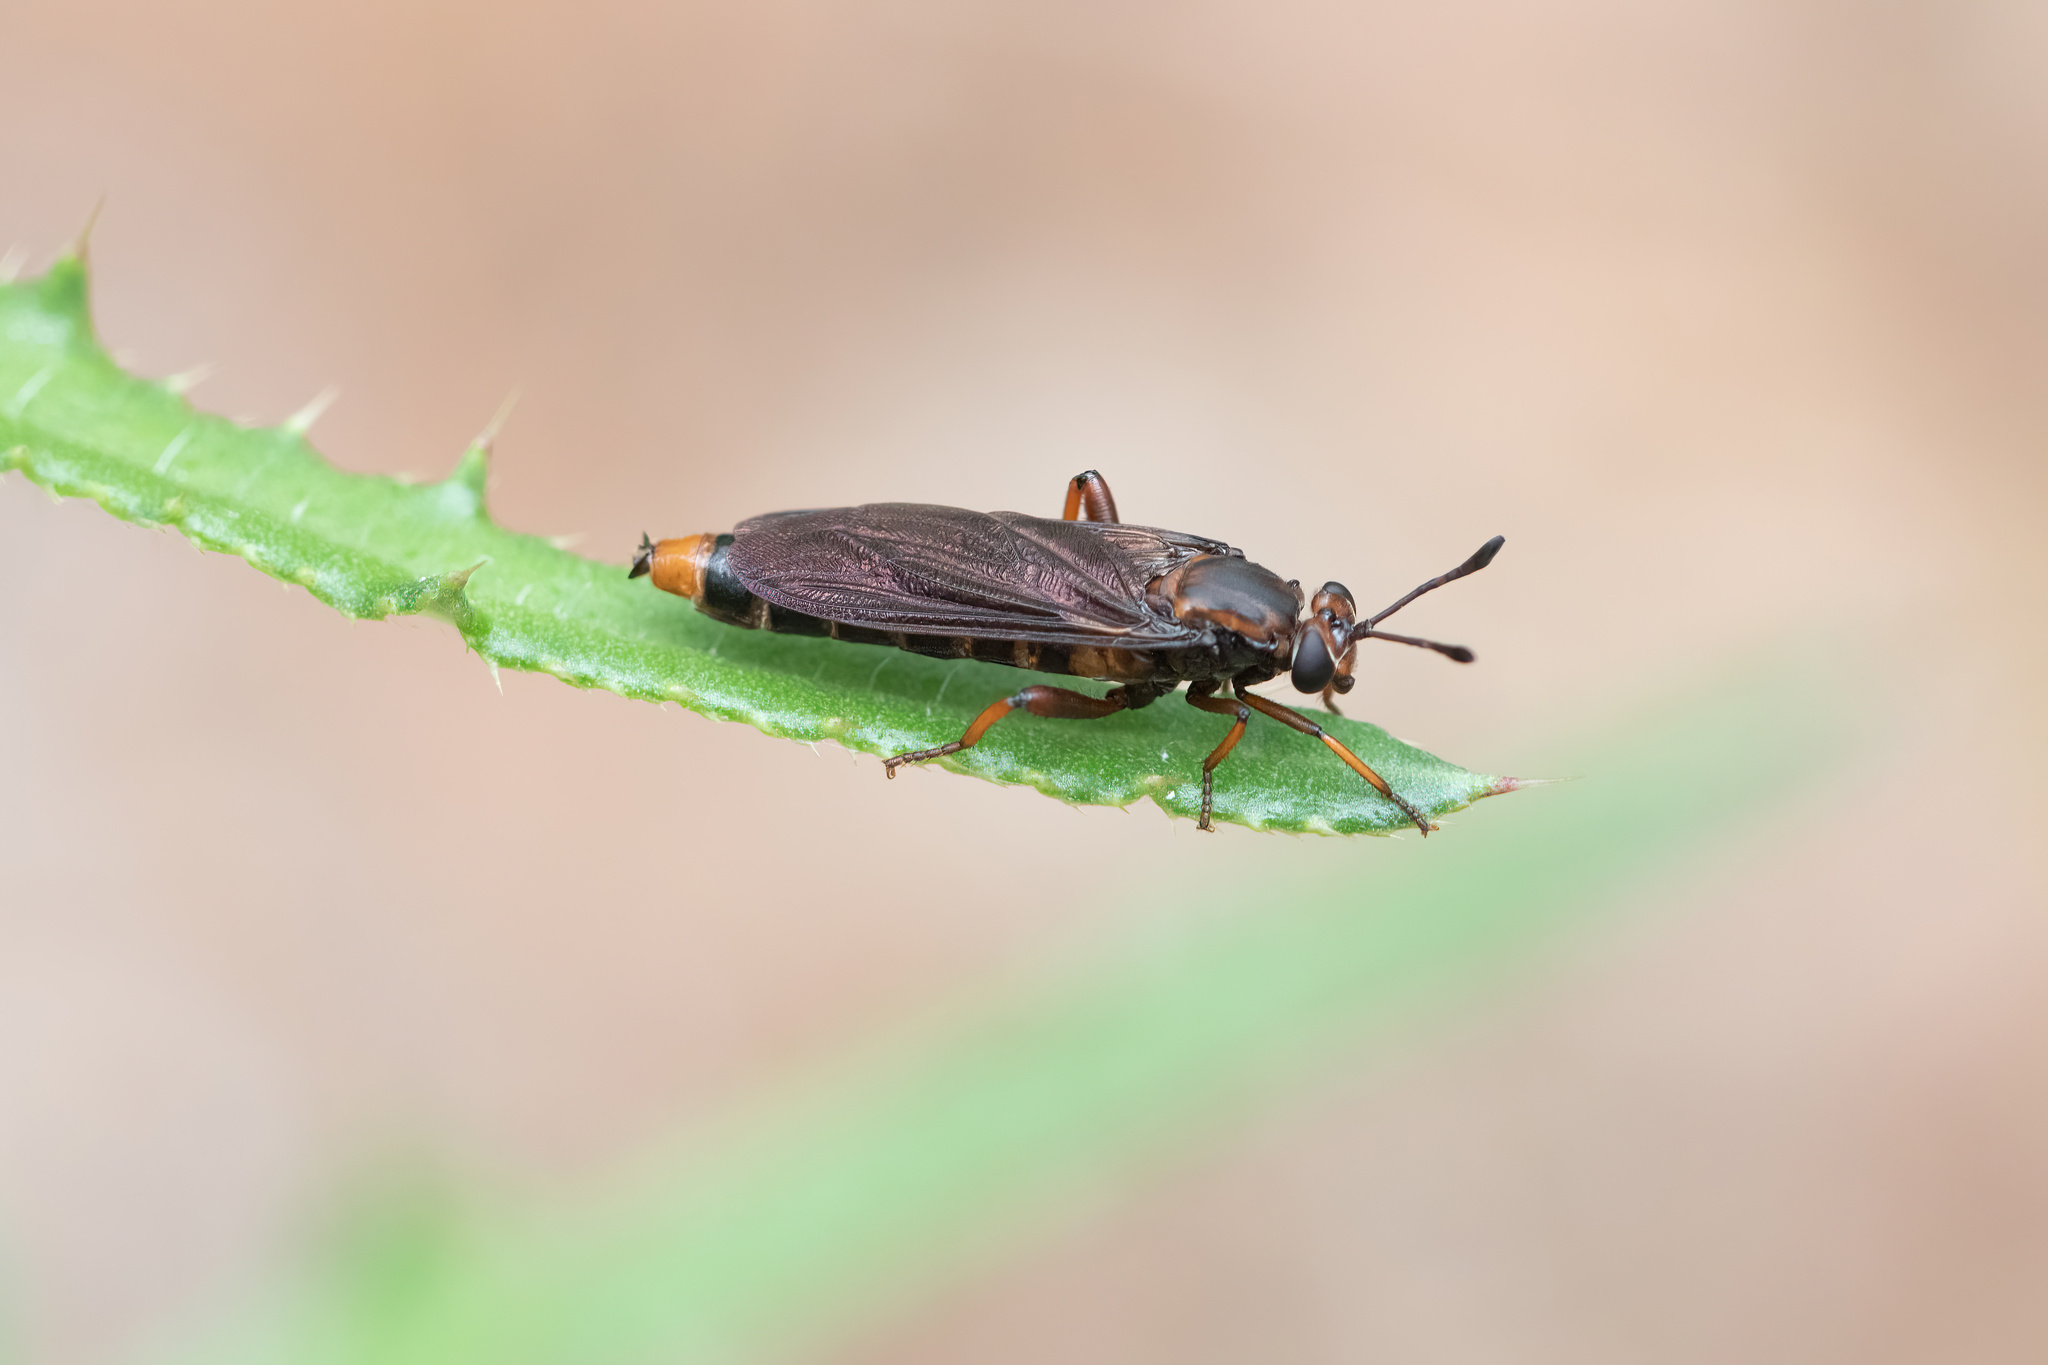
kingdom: Animalia
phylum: Arthropoda
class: Insecta
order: Diptera
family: Mydidae
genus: Phyllomydas
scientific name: Phyllomydas parvulus
